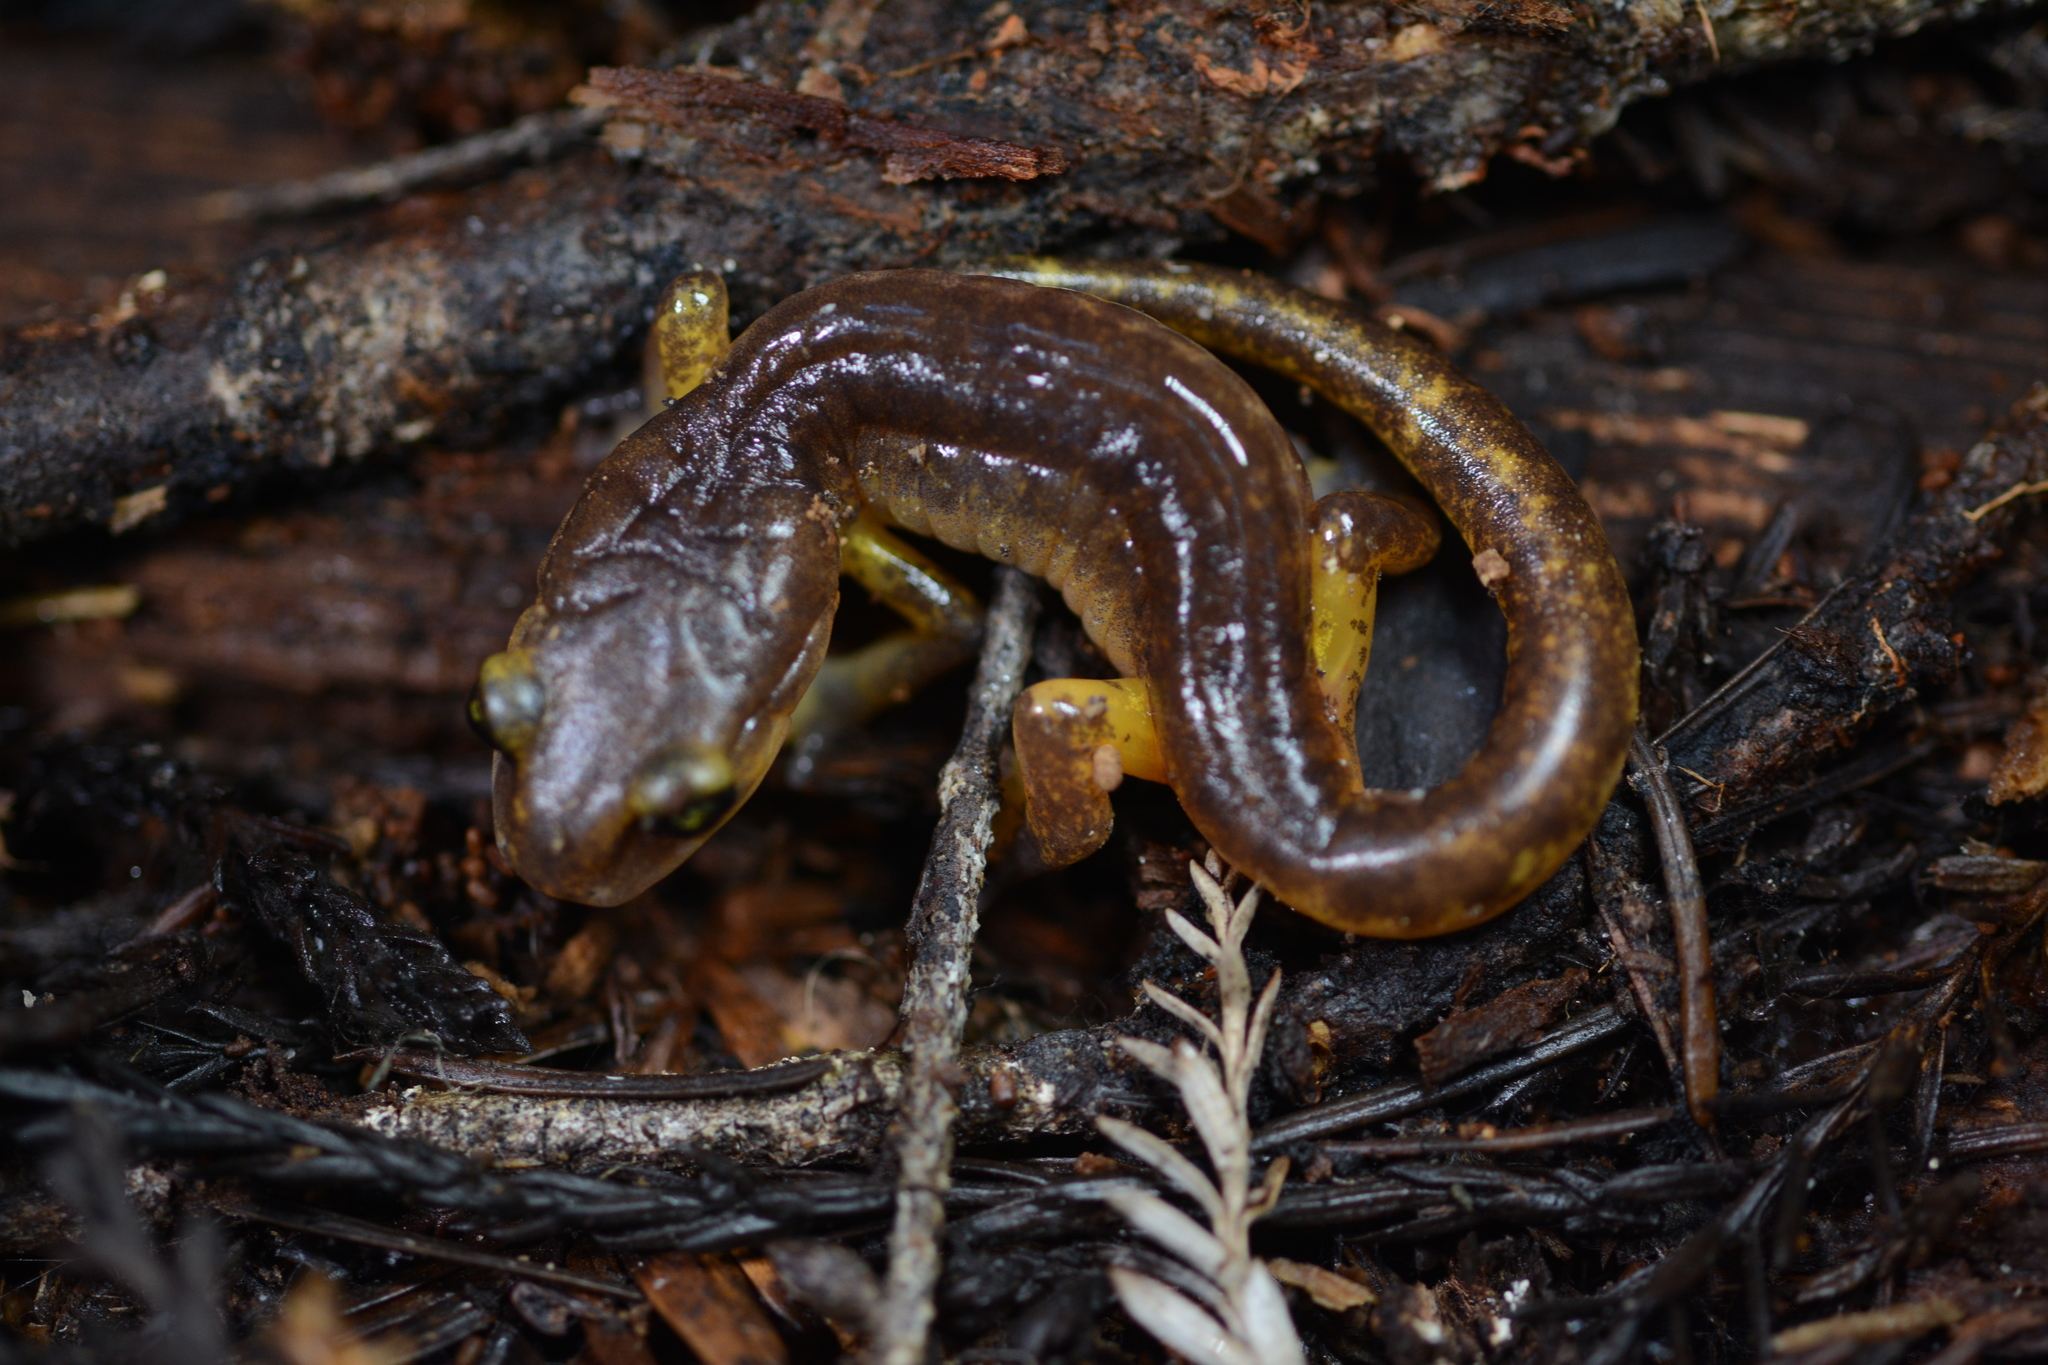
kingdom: Animalia
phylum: Chordata
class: Amphibia
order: Caudata
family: Plethodontidae
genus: Ensatina
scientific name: Ensatina eschscholtzii
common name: Ensatina
